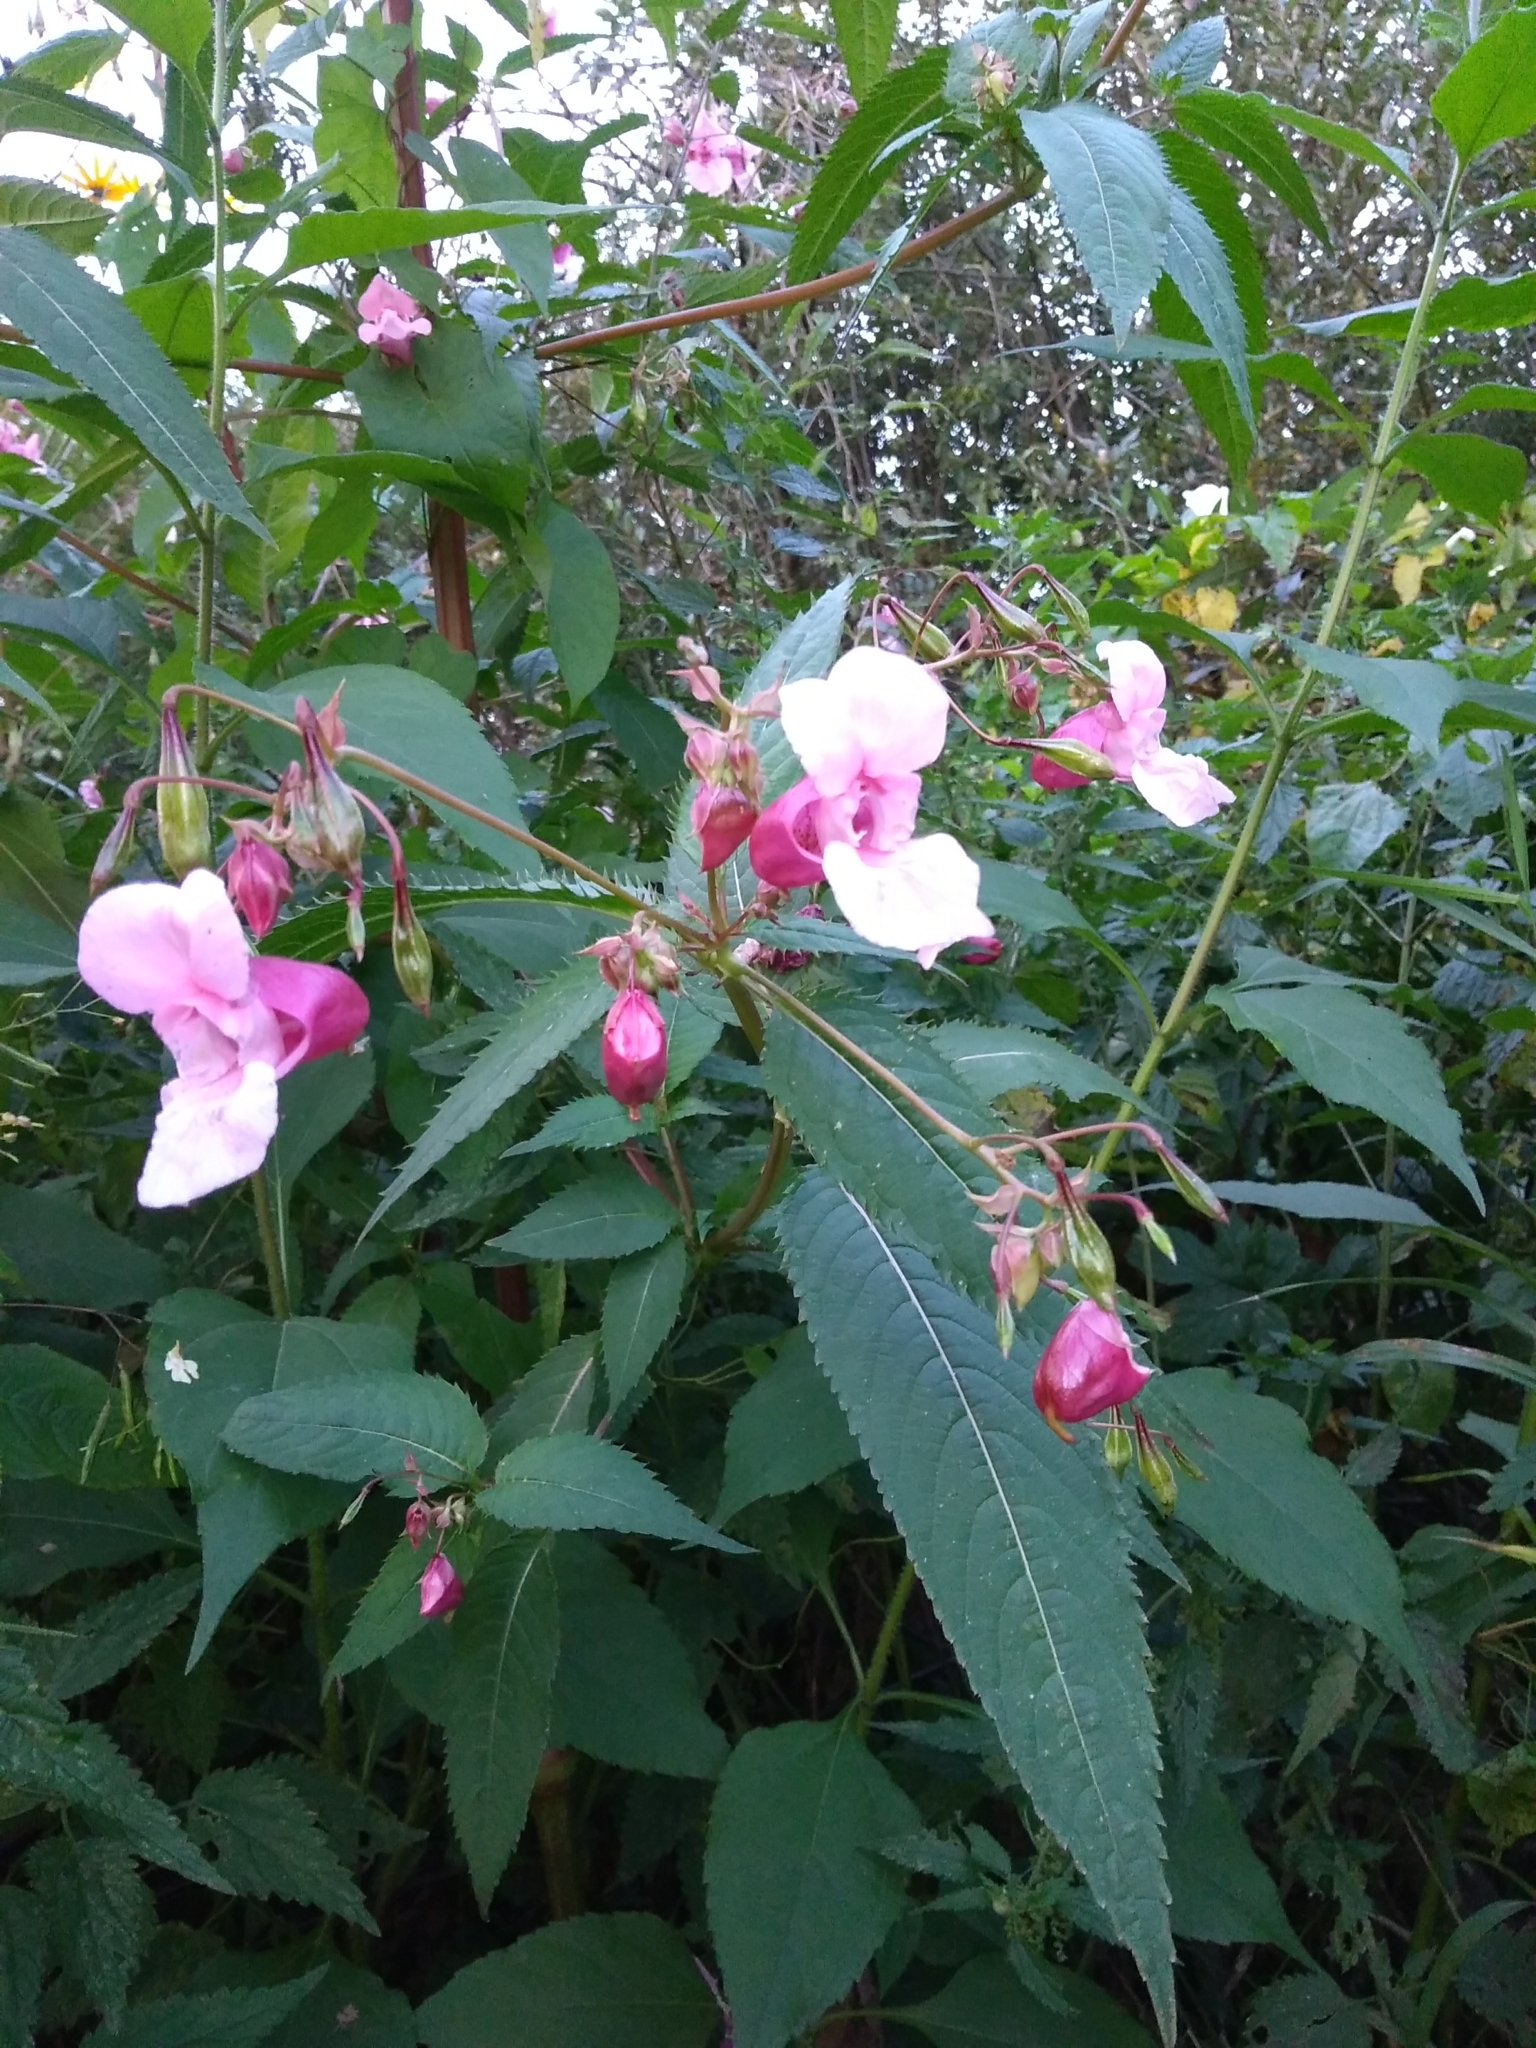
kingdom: Plantae
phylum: Tracheophyta
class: Magnoliopsida
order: Ericales
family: Balsaminaceae
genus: Impatiens
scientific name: Impatiens glandulifera
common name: Himalayan balsam
